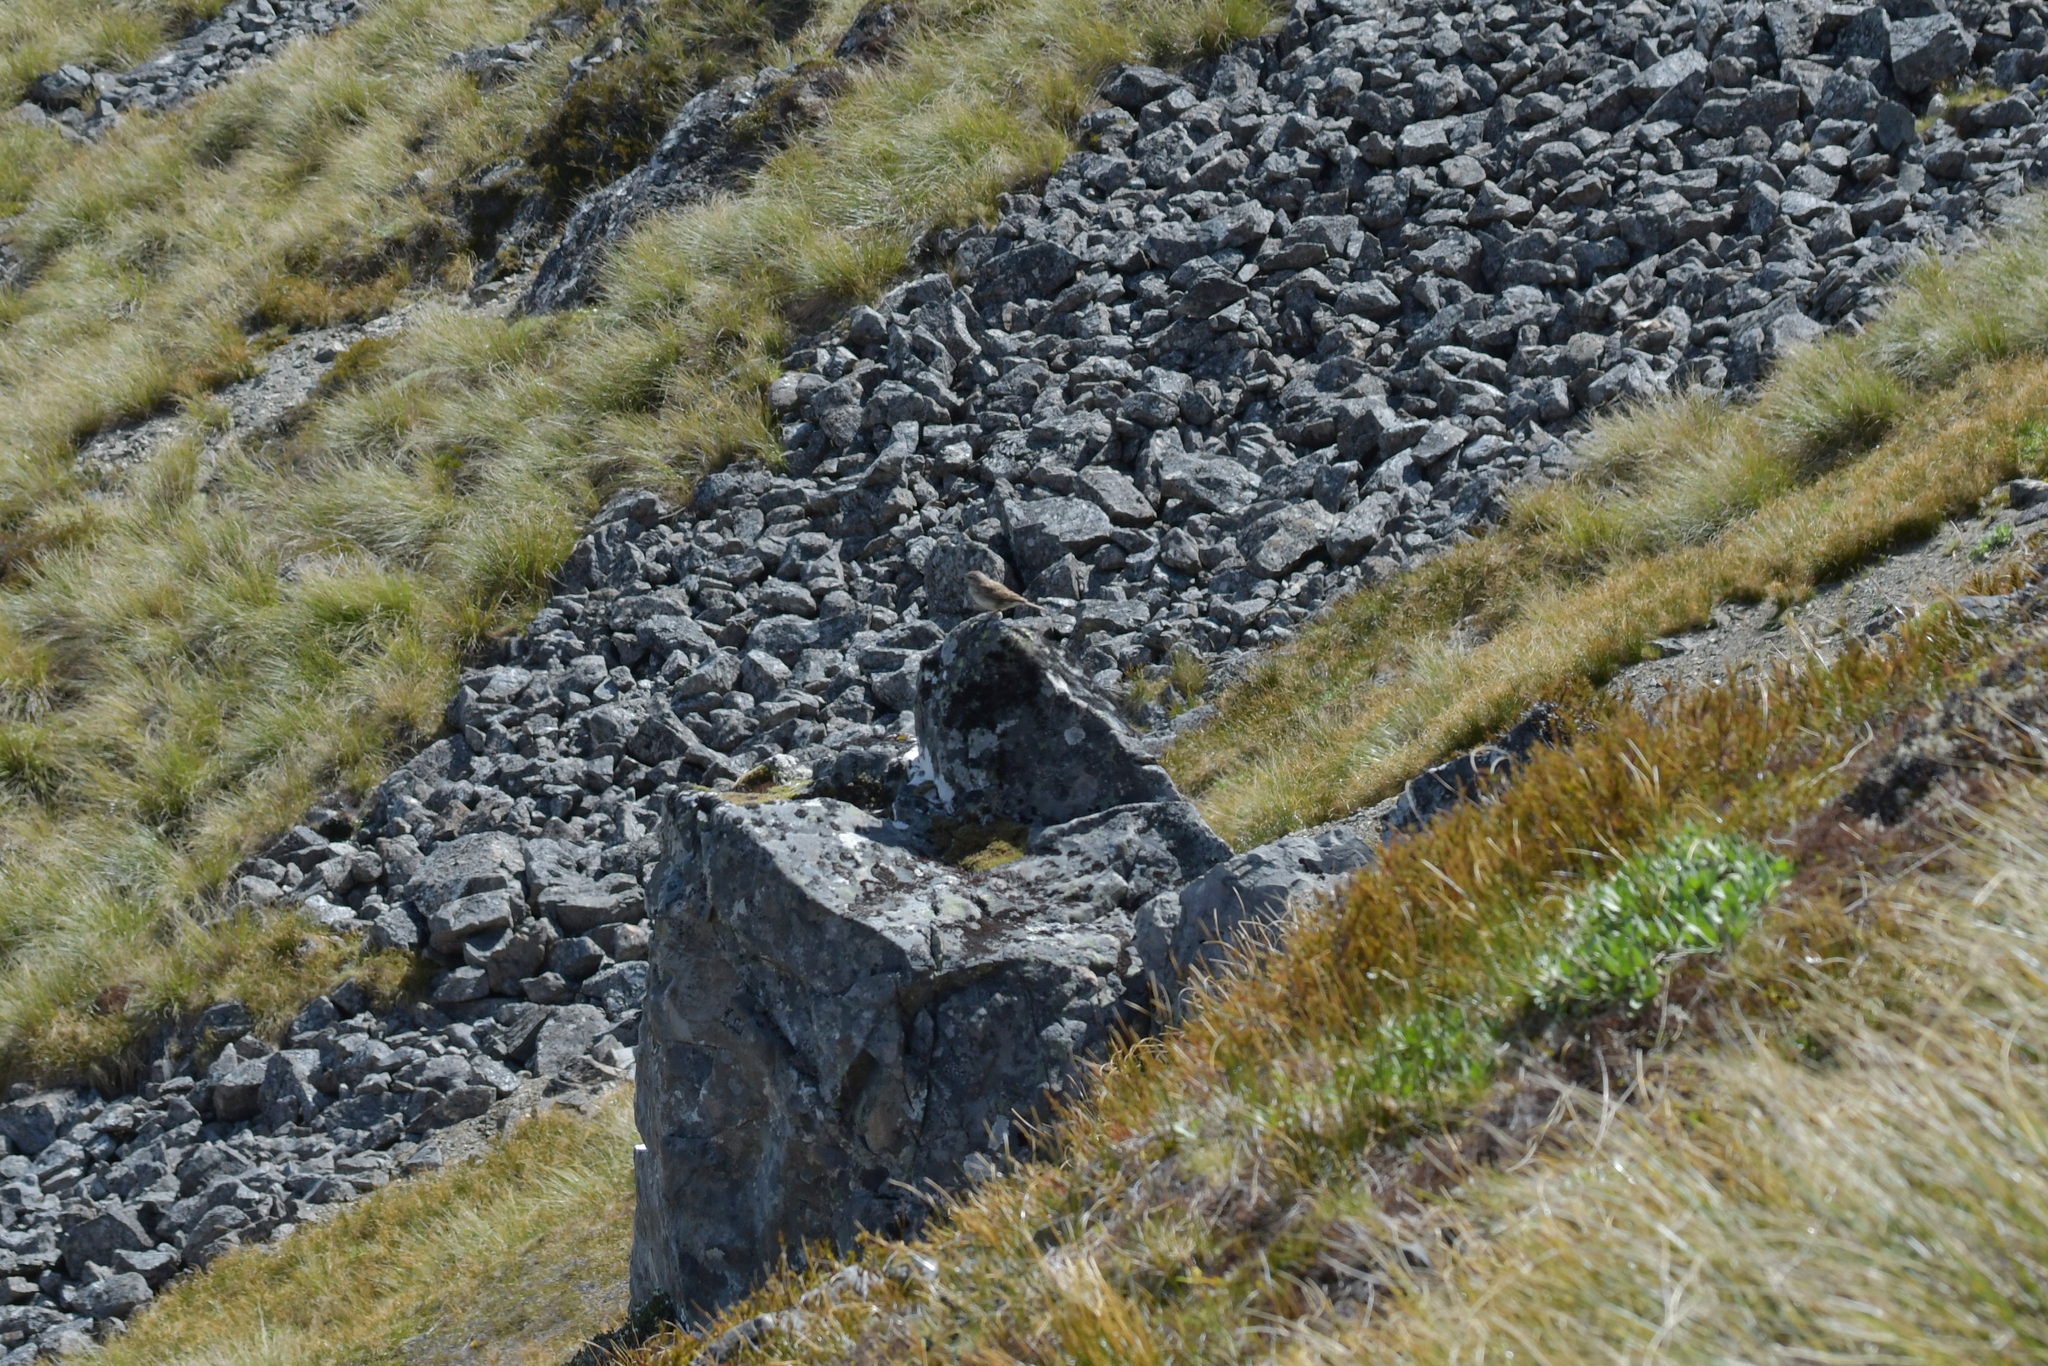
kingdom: Animalia
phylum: Chordata
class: Aves
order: Passeriformes
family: Motacillidae
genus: Anthus
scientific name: Anthus novaeseelandiae
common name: New zealand pipit
